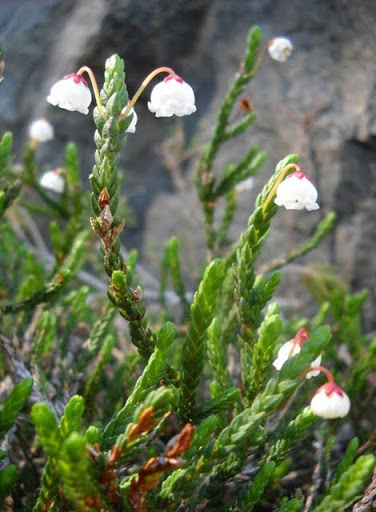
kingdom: Plantae
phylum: Tracheophyta
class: Magnoliopsida
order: Ericales
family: Ericaceae
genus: Cassiope
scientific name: Cassiope mertensiana
